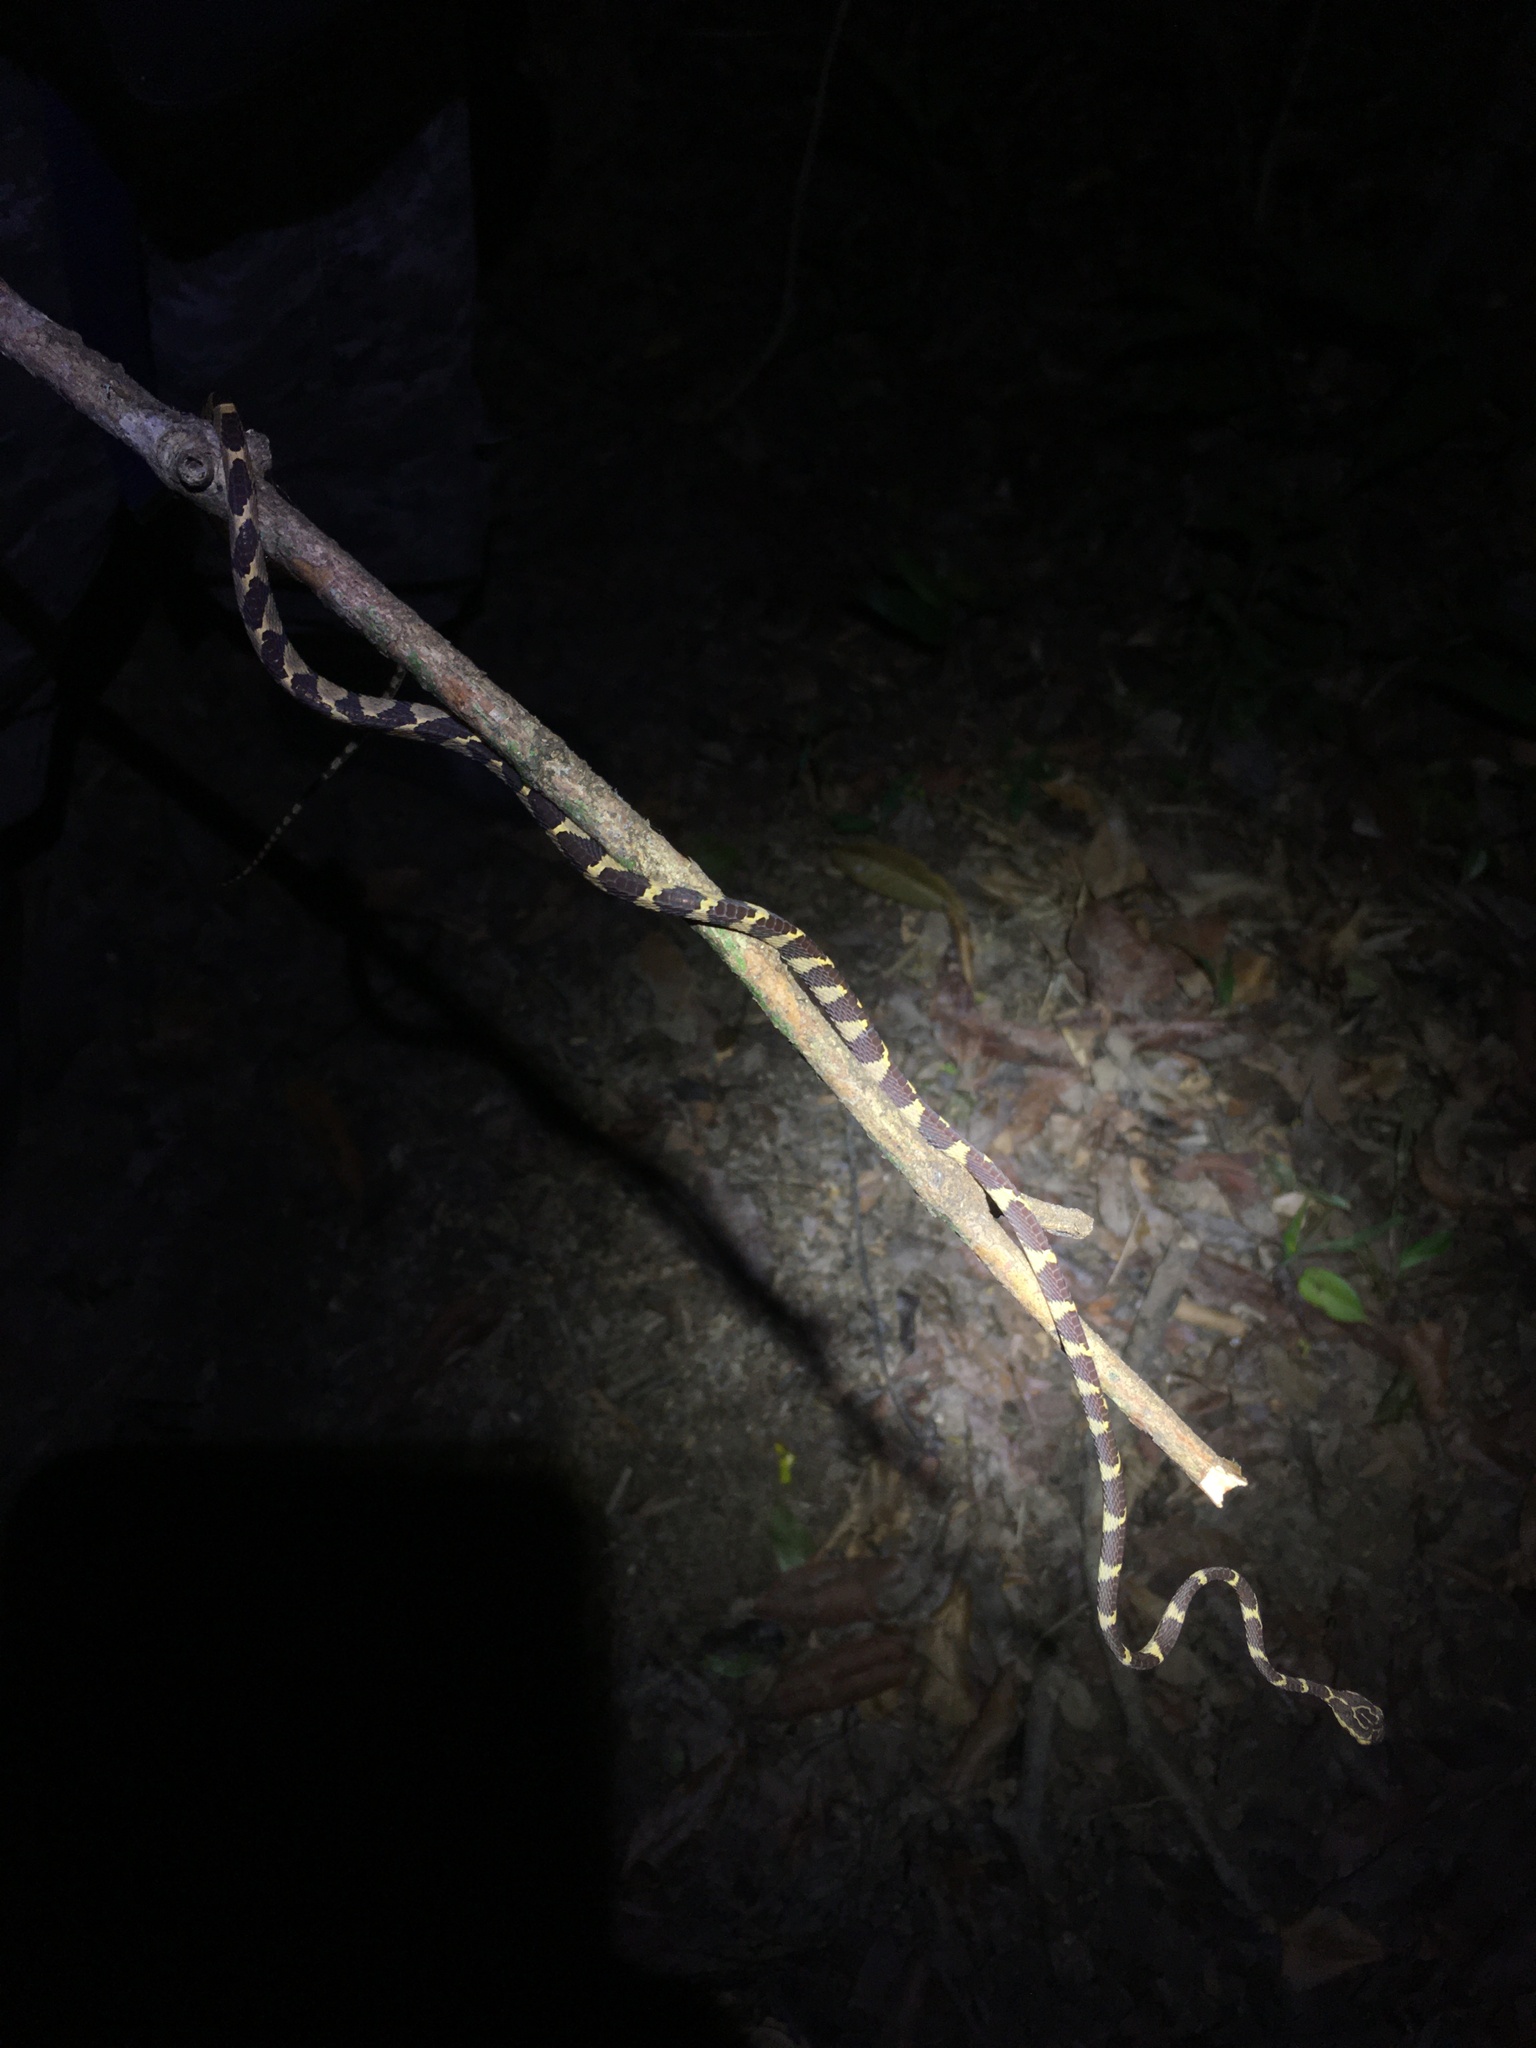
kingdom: Animalia
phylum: Chordata
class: Squamata
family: Colubridae
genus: Imantodes
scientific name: Imantodes cenchoa
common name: Blunthead tree snake
